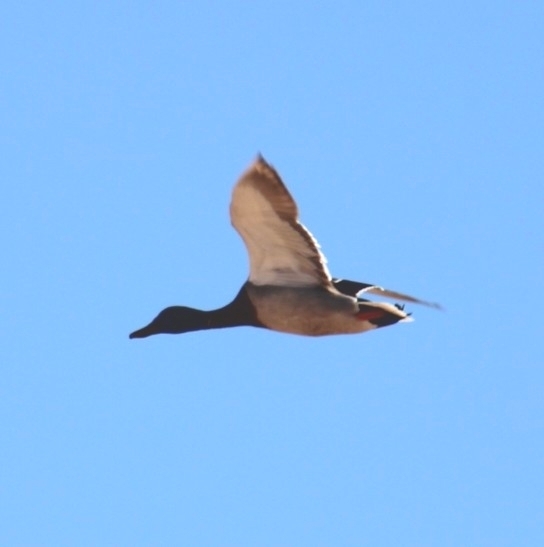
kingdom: Animalia
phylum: Chordata
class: Aves
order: Anseriformes
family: Anatidae
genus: Anas
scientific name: Anas platyrhynchos
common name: Mallard
